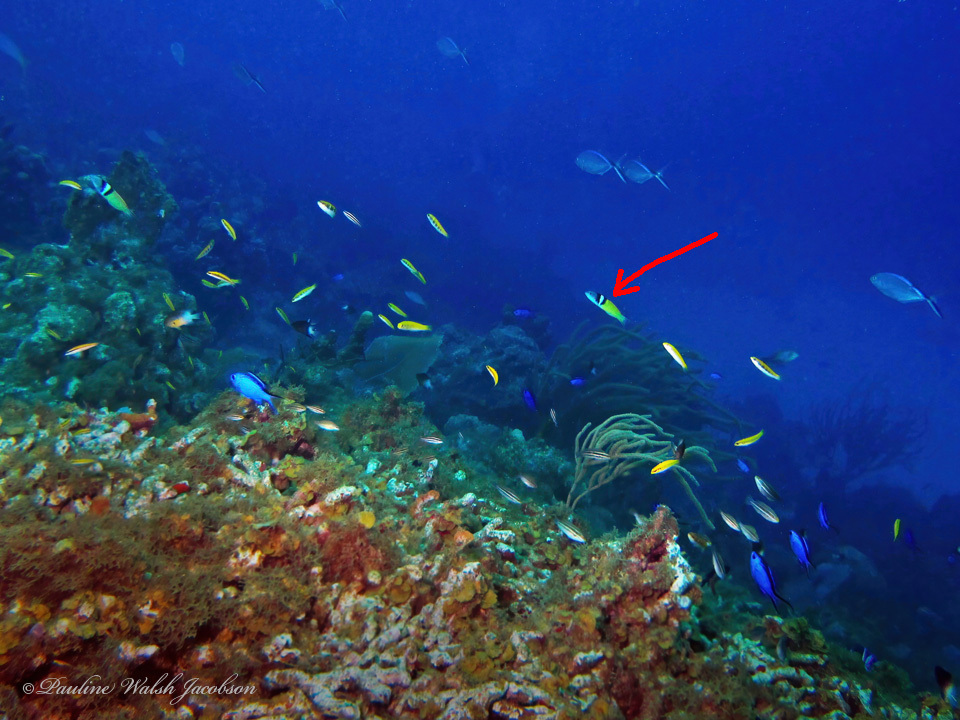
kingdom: Animalia
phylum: Chordata
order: Perciformes
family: Labridae
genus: Thalassoma
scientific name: Thalassoma bifasciatum
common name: Bluehead wrasse
